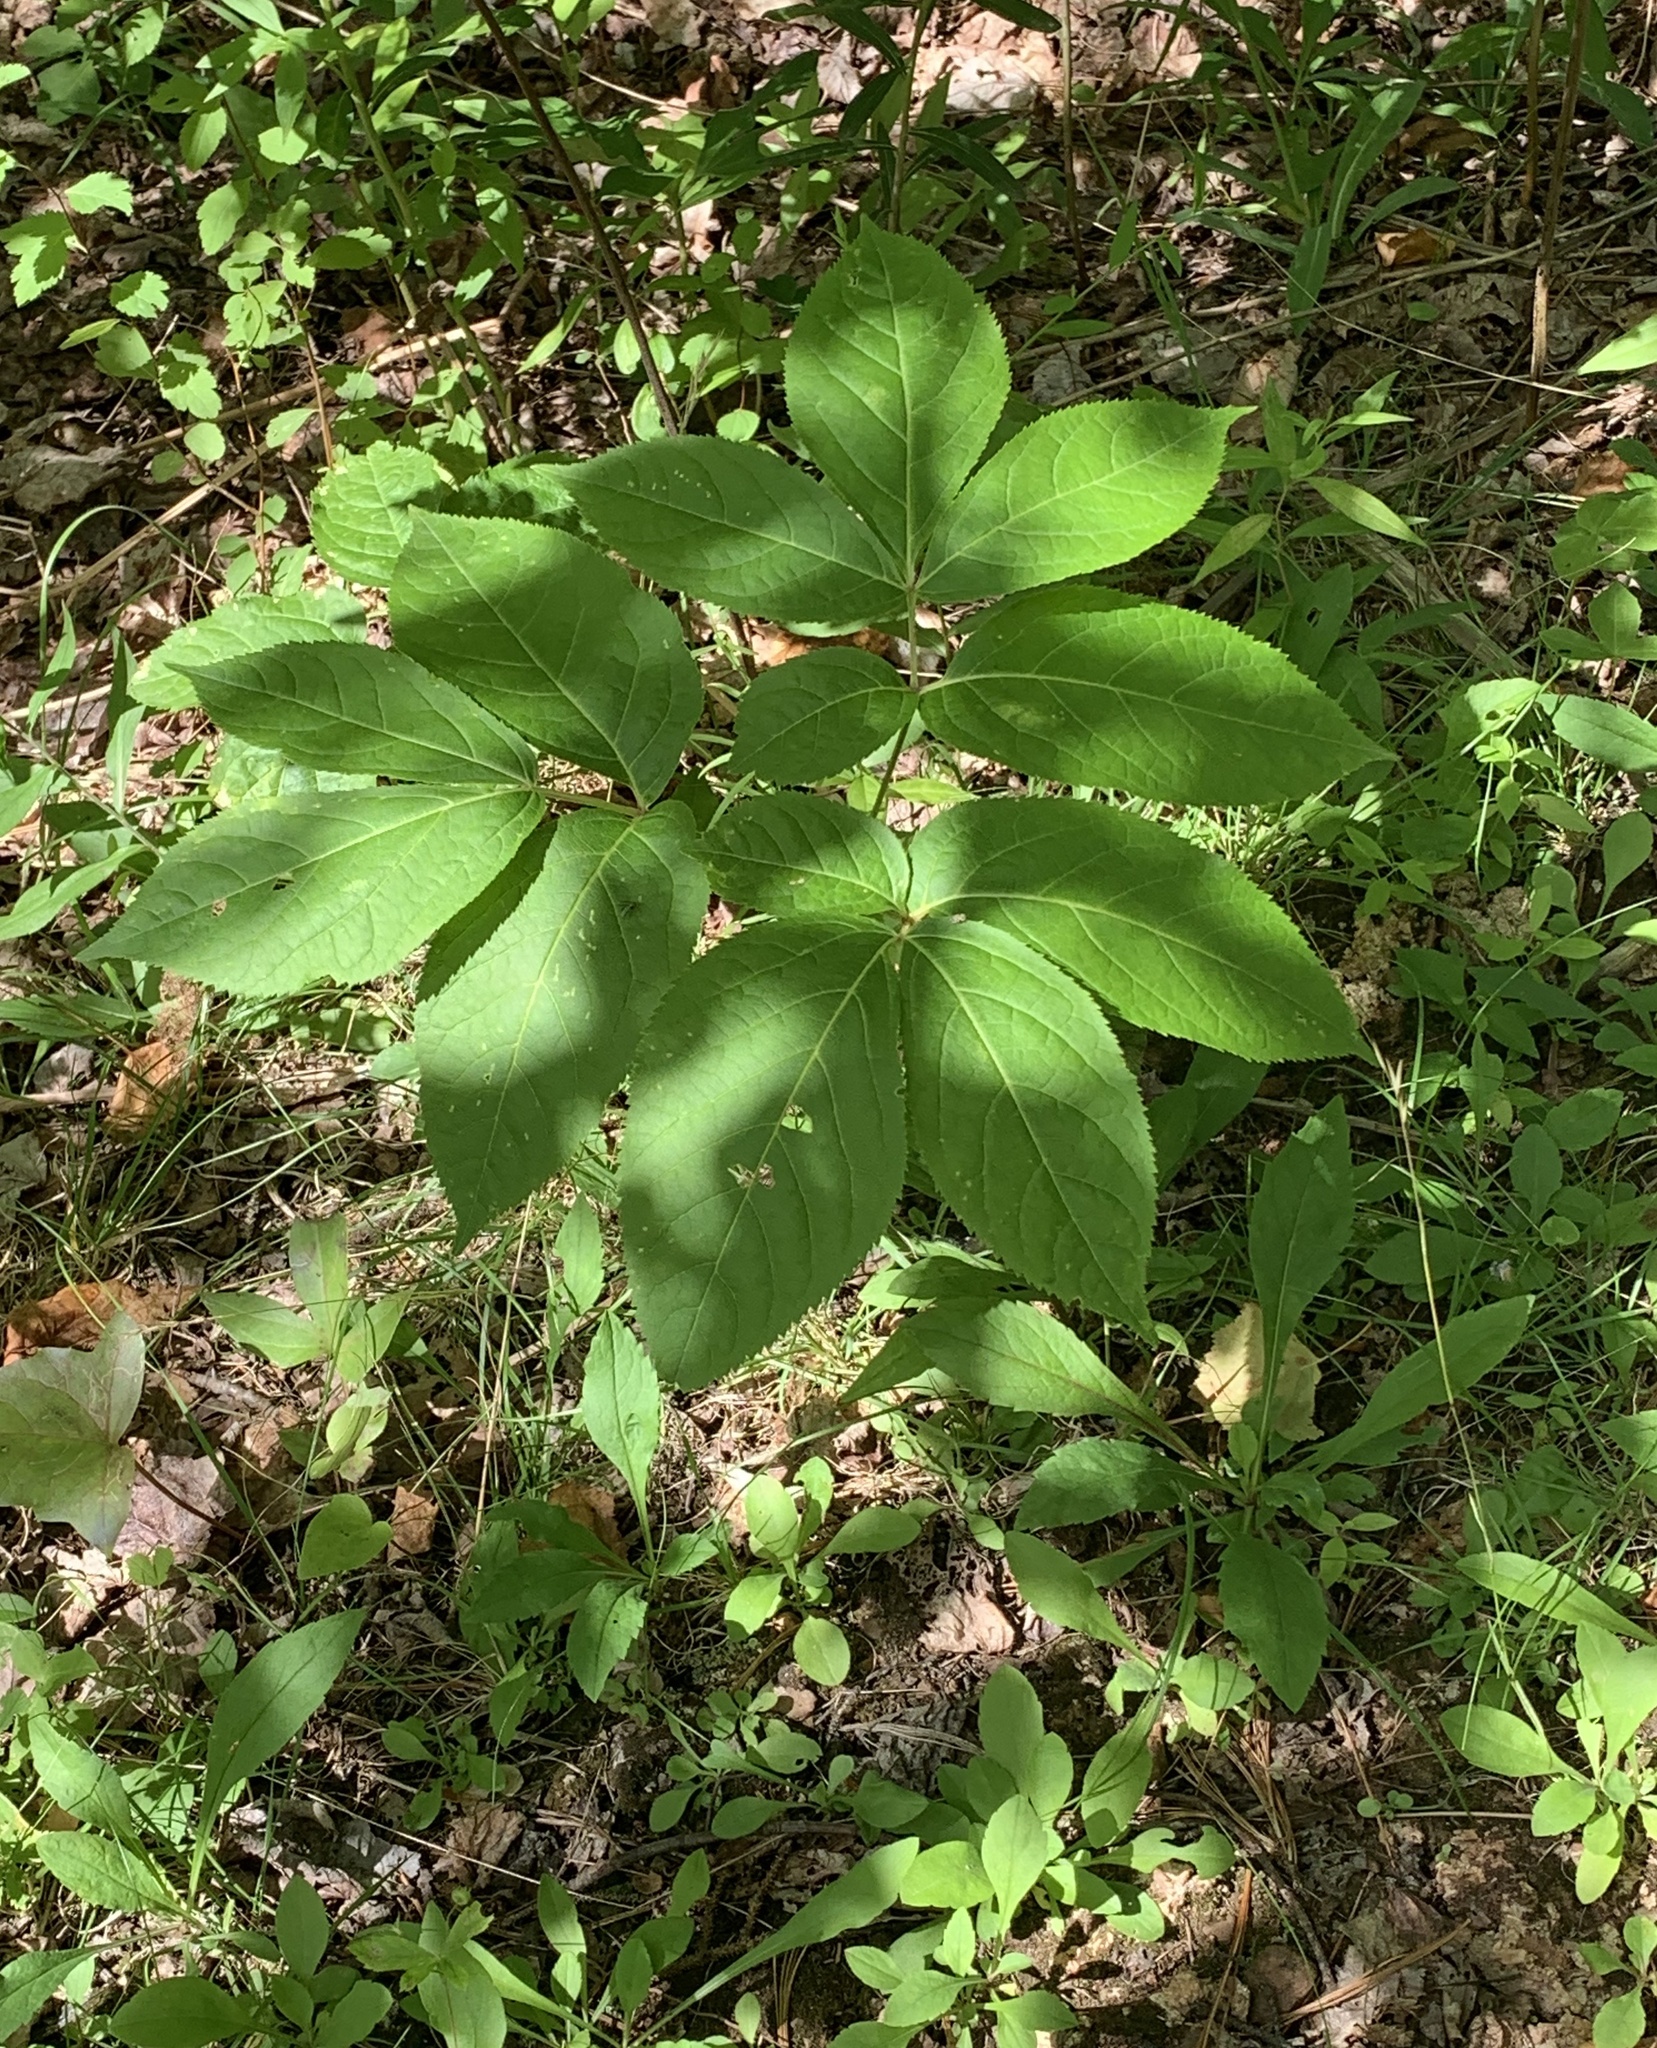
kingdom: Plantae
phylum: Tracheophyta
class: Magnoliopsida
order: Apiales
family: Araliaceae
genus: Aralia
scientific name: Aralia nudicaulis
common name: Wild sarsaparilla
